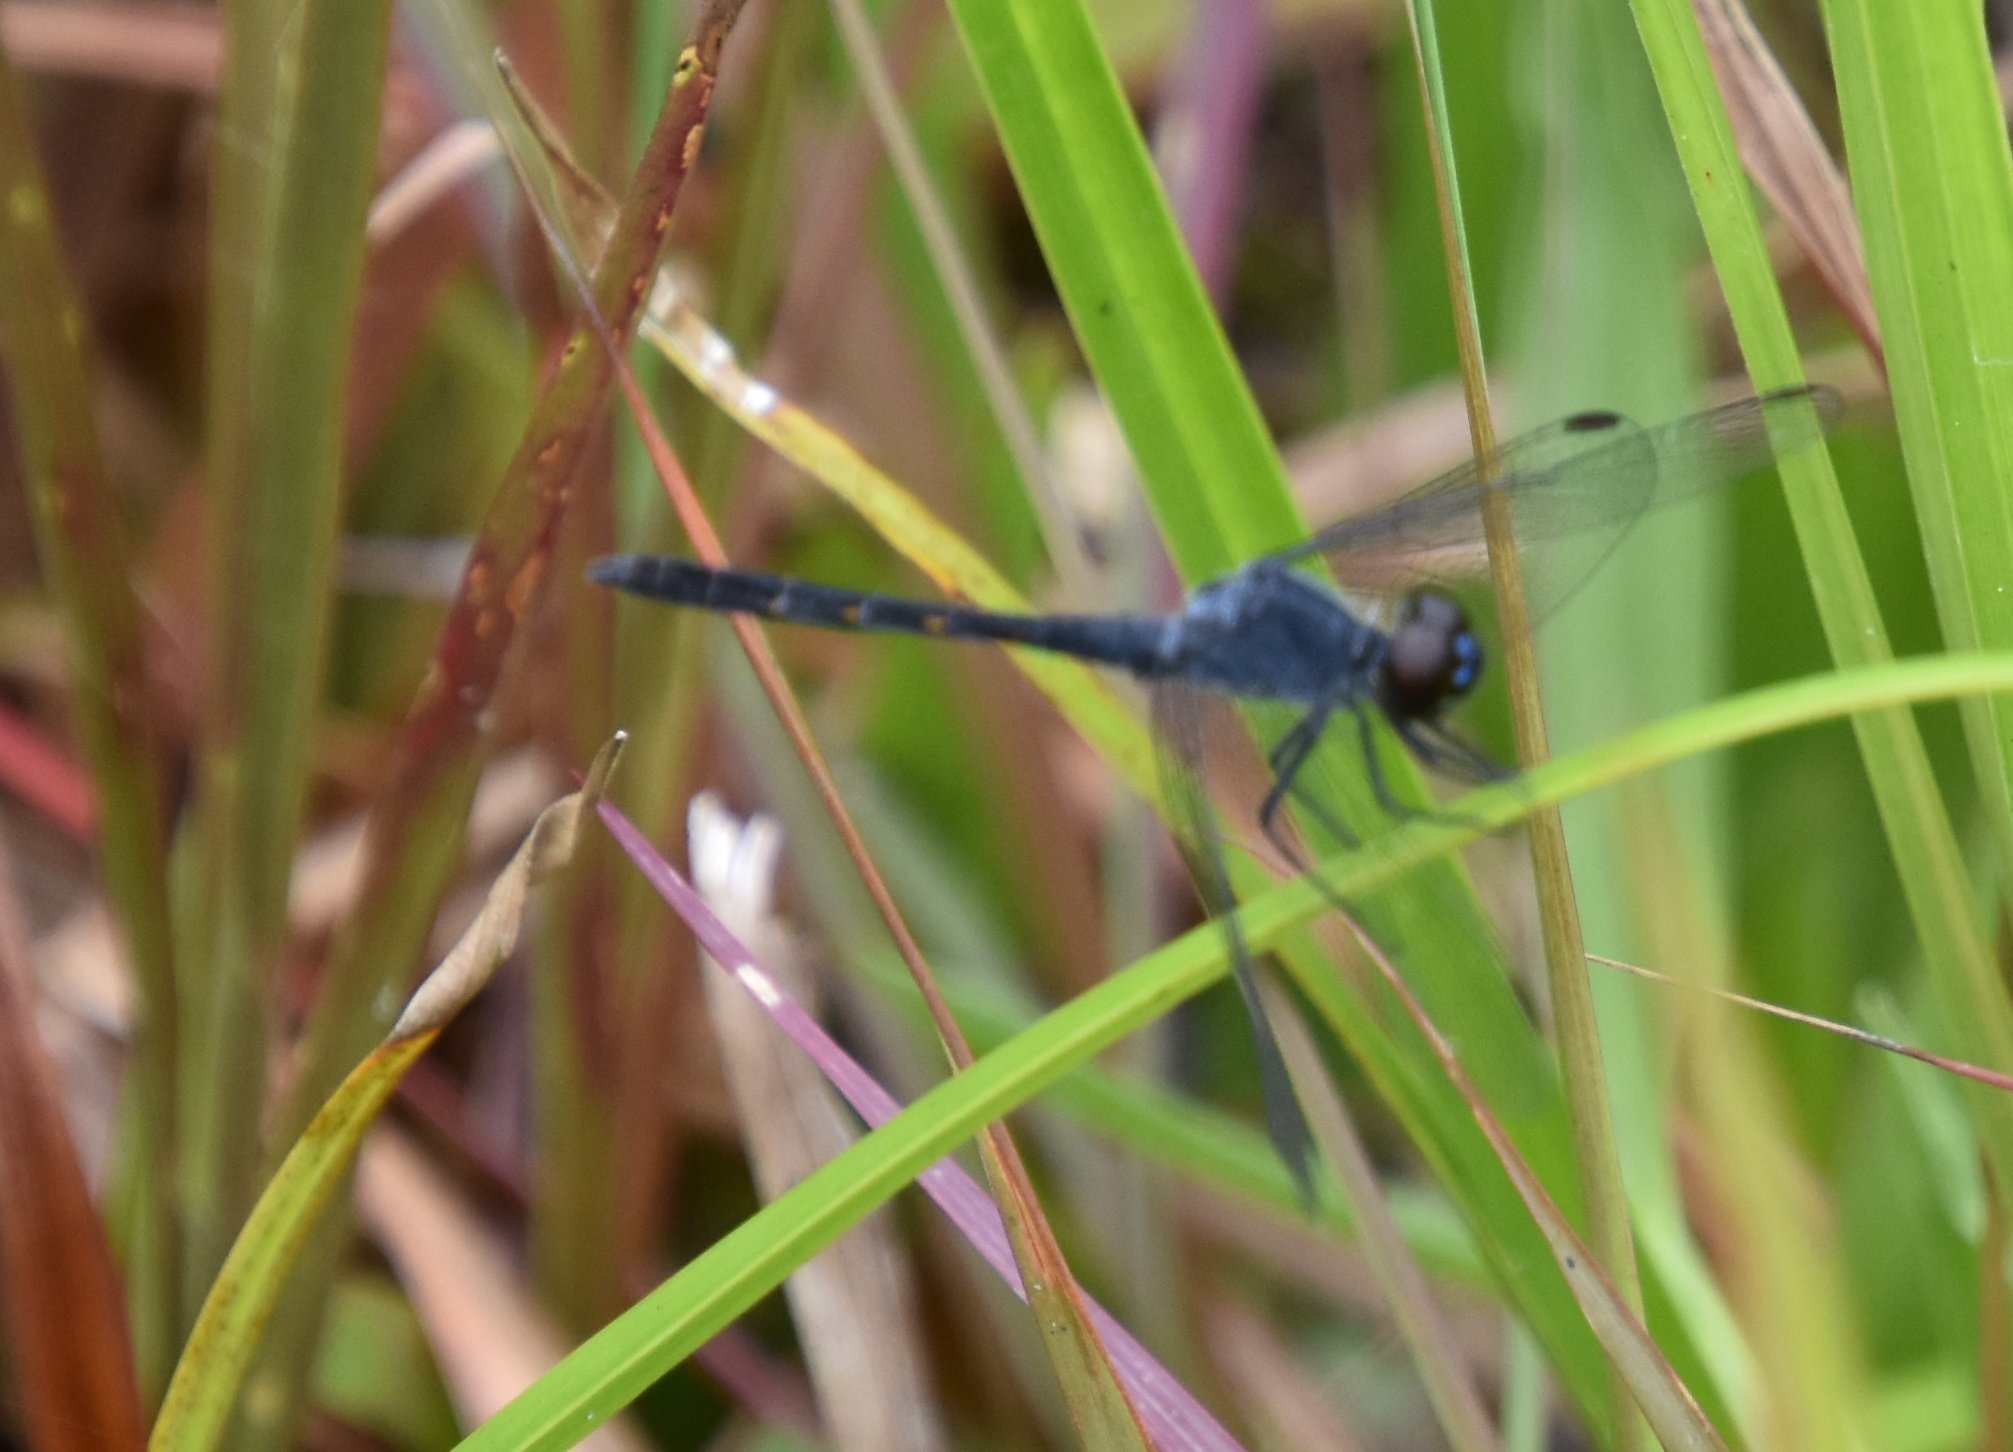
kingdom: Animalia
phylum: Arthropoda
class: Insecta
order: Odonata
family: Libellulidae
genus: Erythrodiplax
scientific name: Erythrodiplax berenice
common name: Seaside dragonlet
